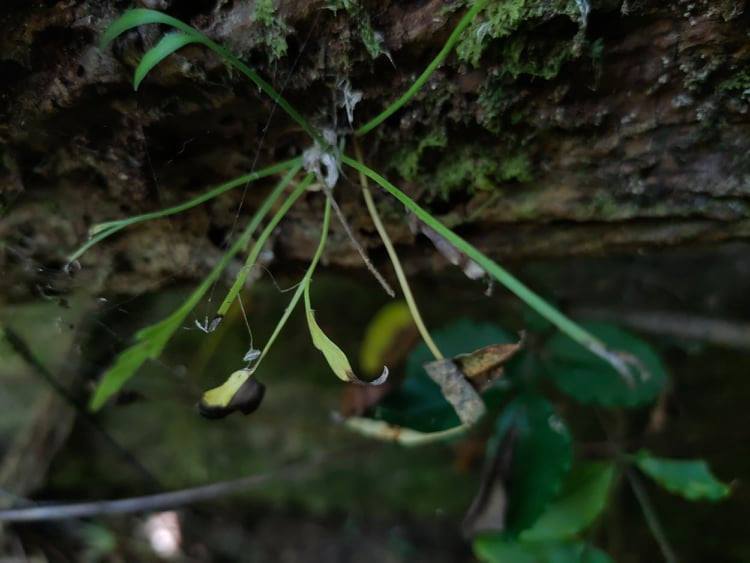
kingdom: Plantae
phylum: Tracheophyta
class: Polypodiopsida
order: Polypodiales
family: Aspleniaceae
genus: Asplenium
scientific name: Asplenium flaccidum
